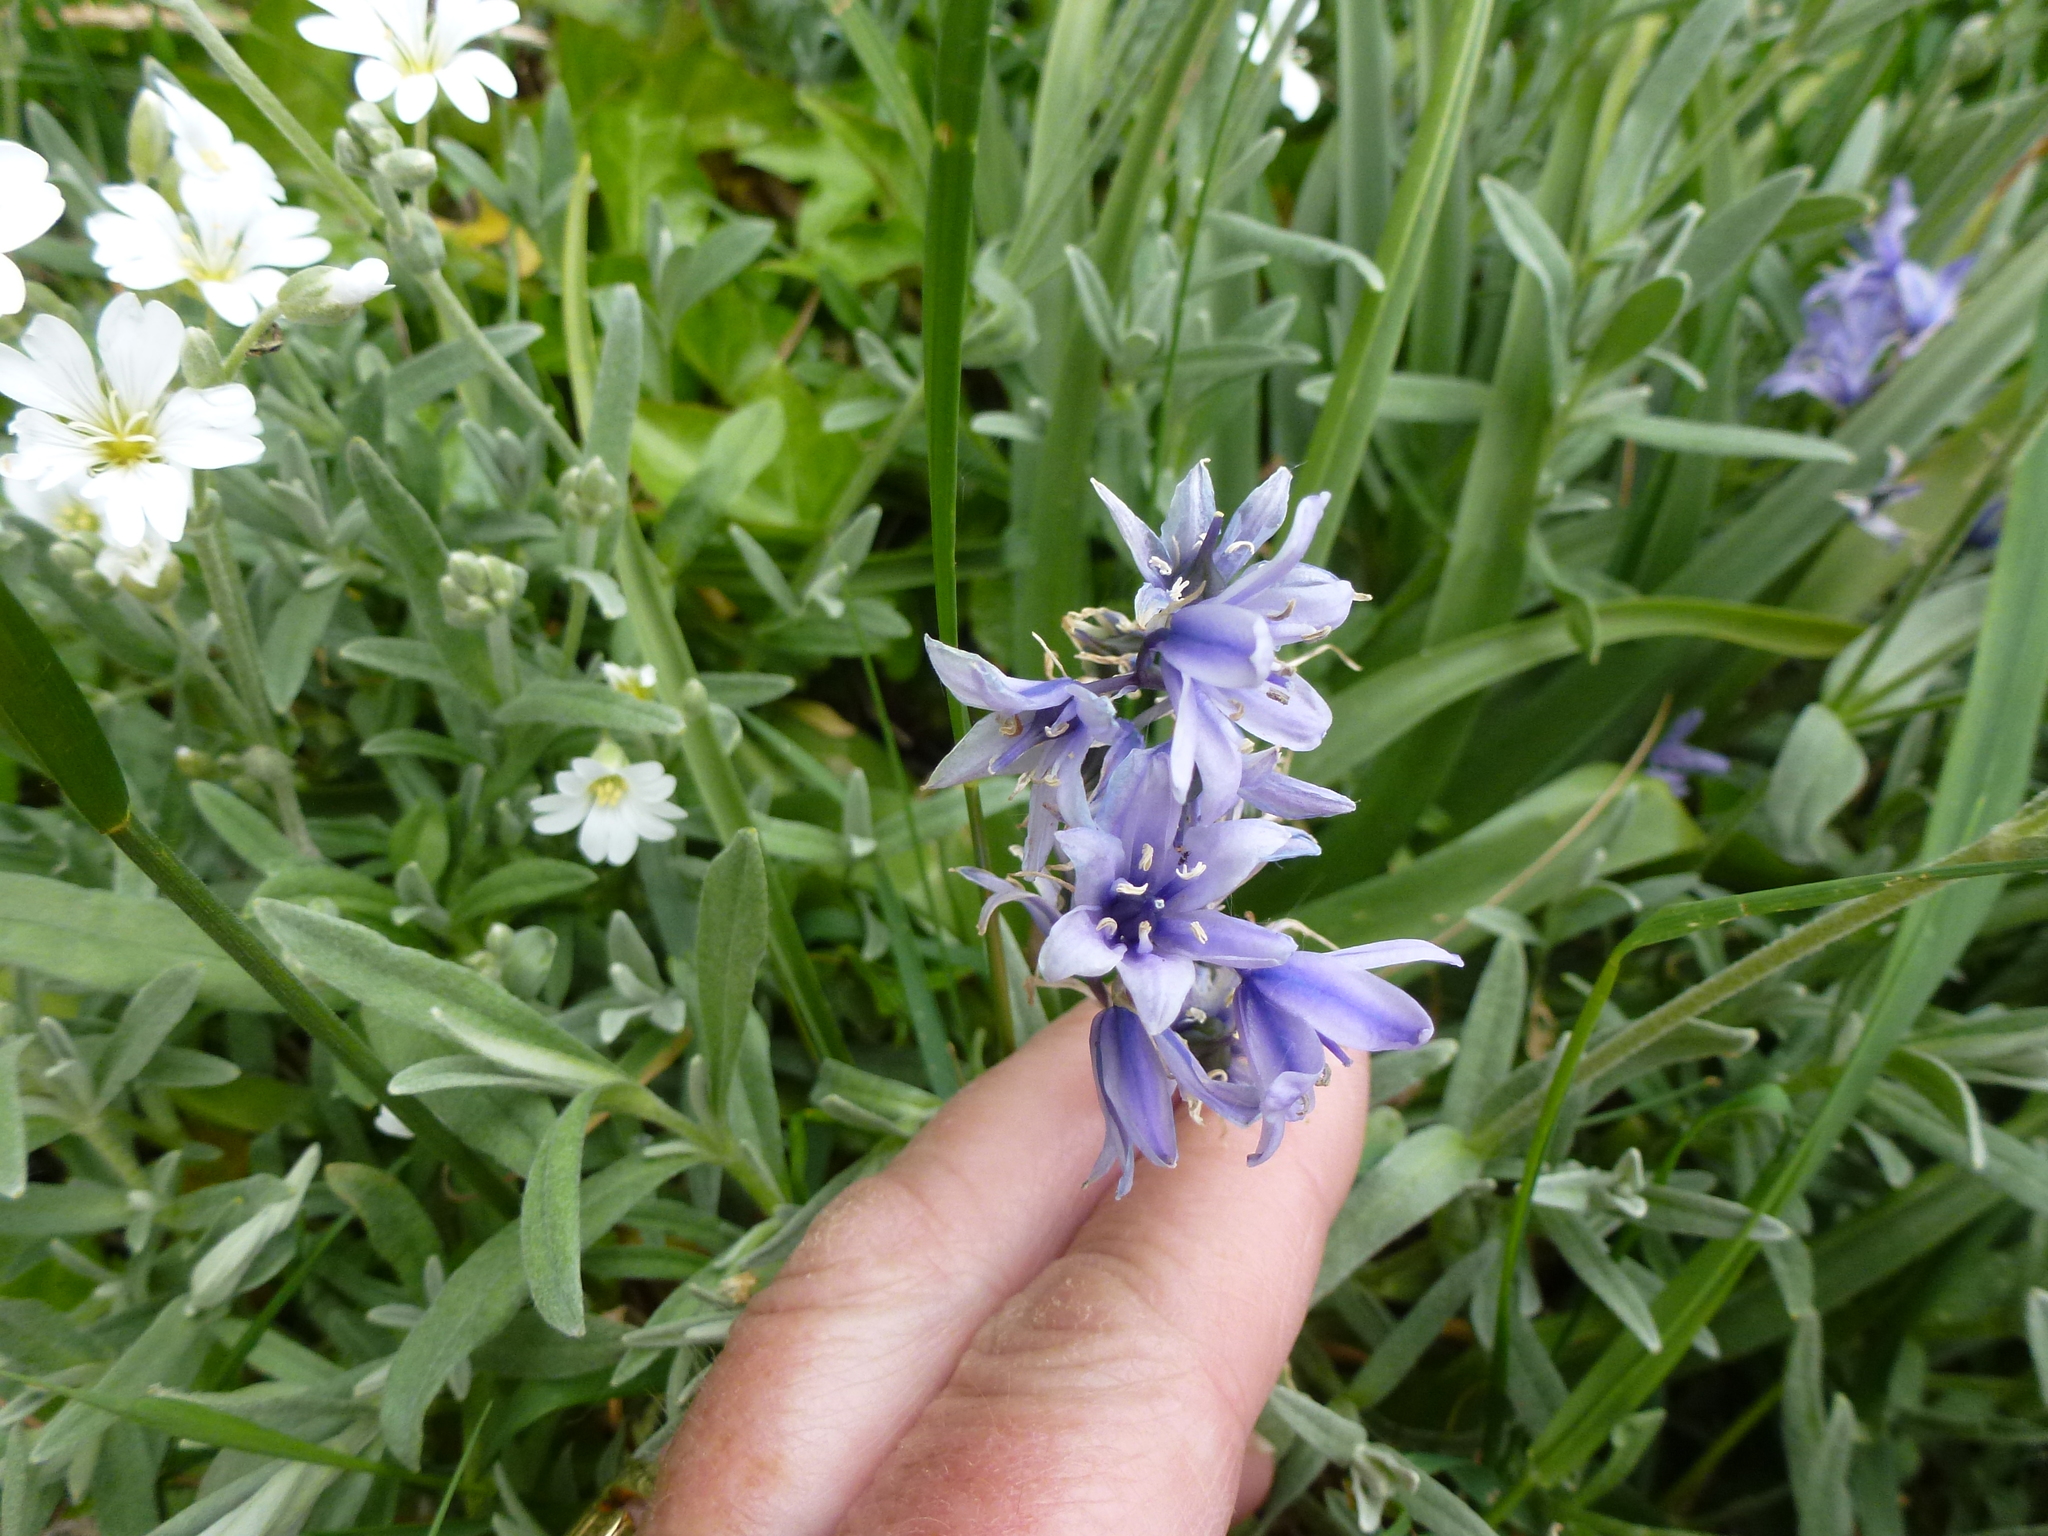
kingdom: Plantae
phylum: Tracheophyta
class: Liliopsida
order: Asparagales
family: Asparagaceae
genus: Hyacinthoides
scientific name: Hyacinthoides hispanica
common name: Spanish bluebell
